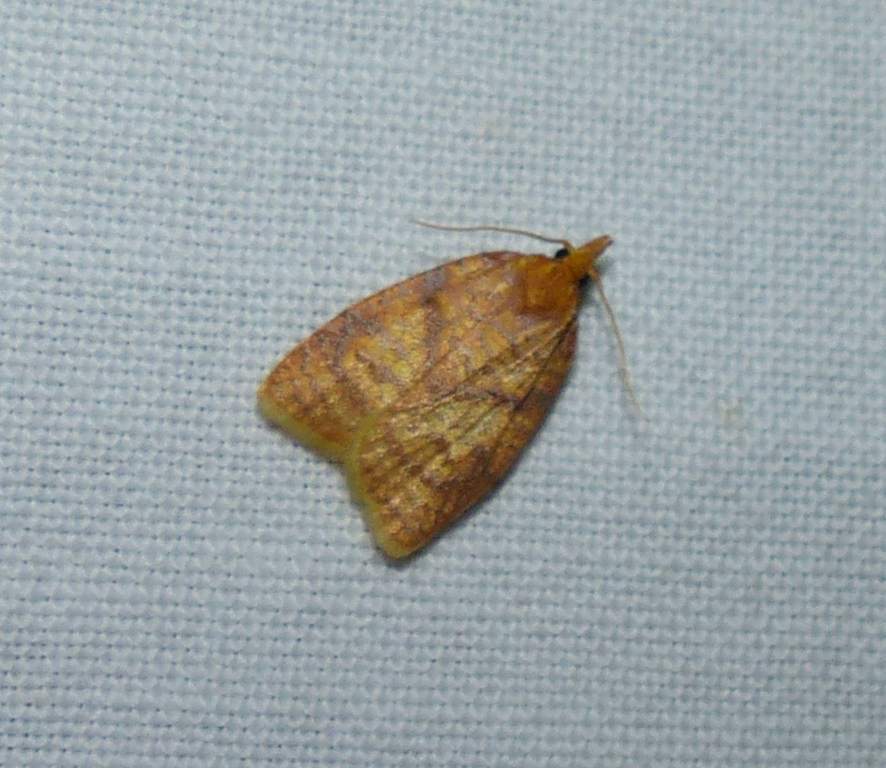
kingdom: Animalia
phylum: Arthropoda
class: Insecta
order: Lepidoptera
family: Tortricidae
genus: Cenopis
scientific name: Cenopis pettitana
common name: Maple-basswood leafroller moth
